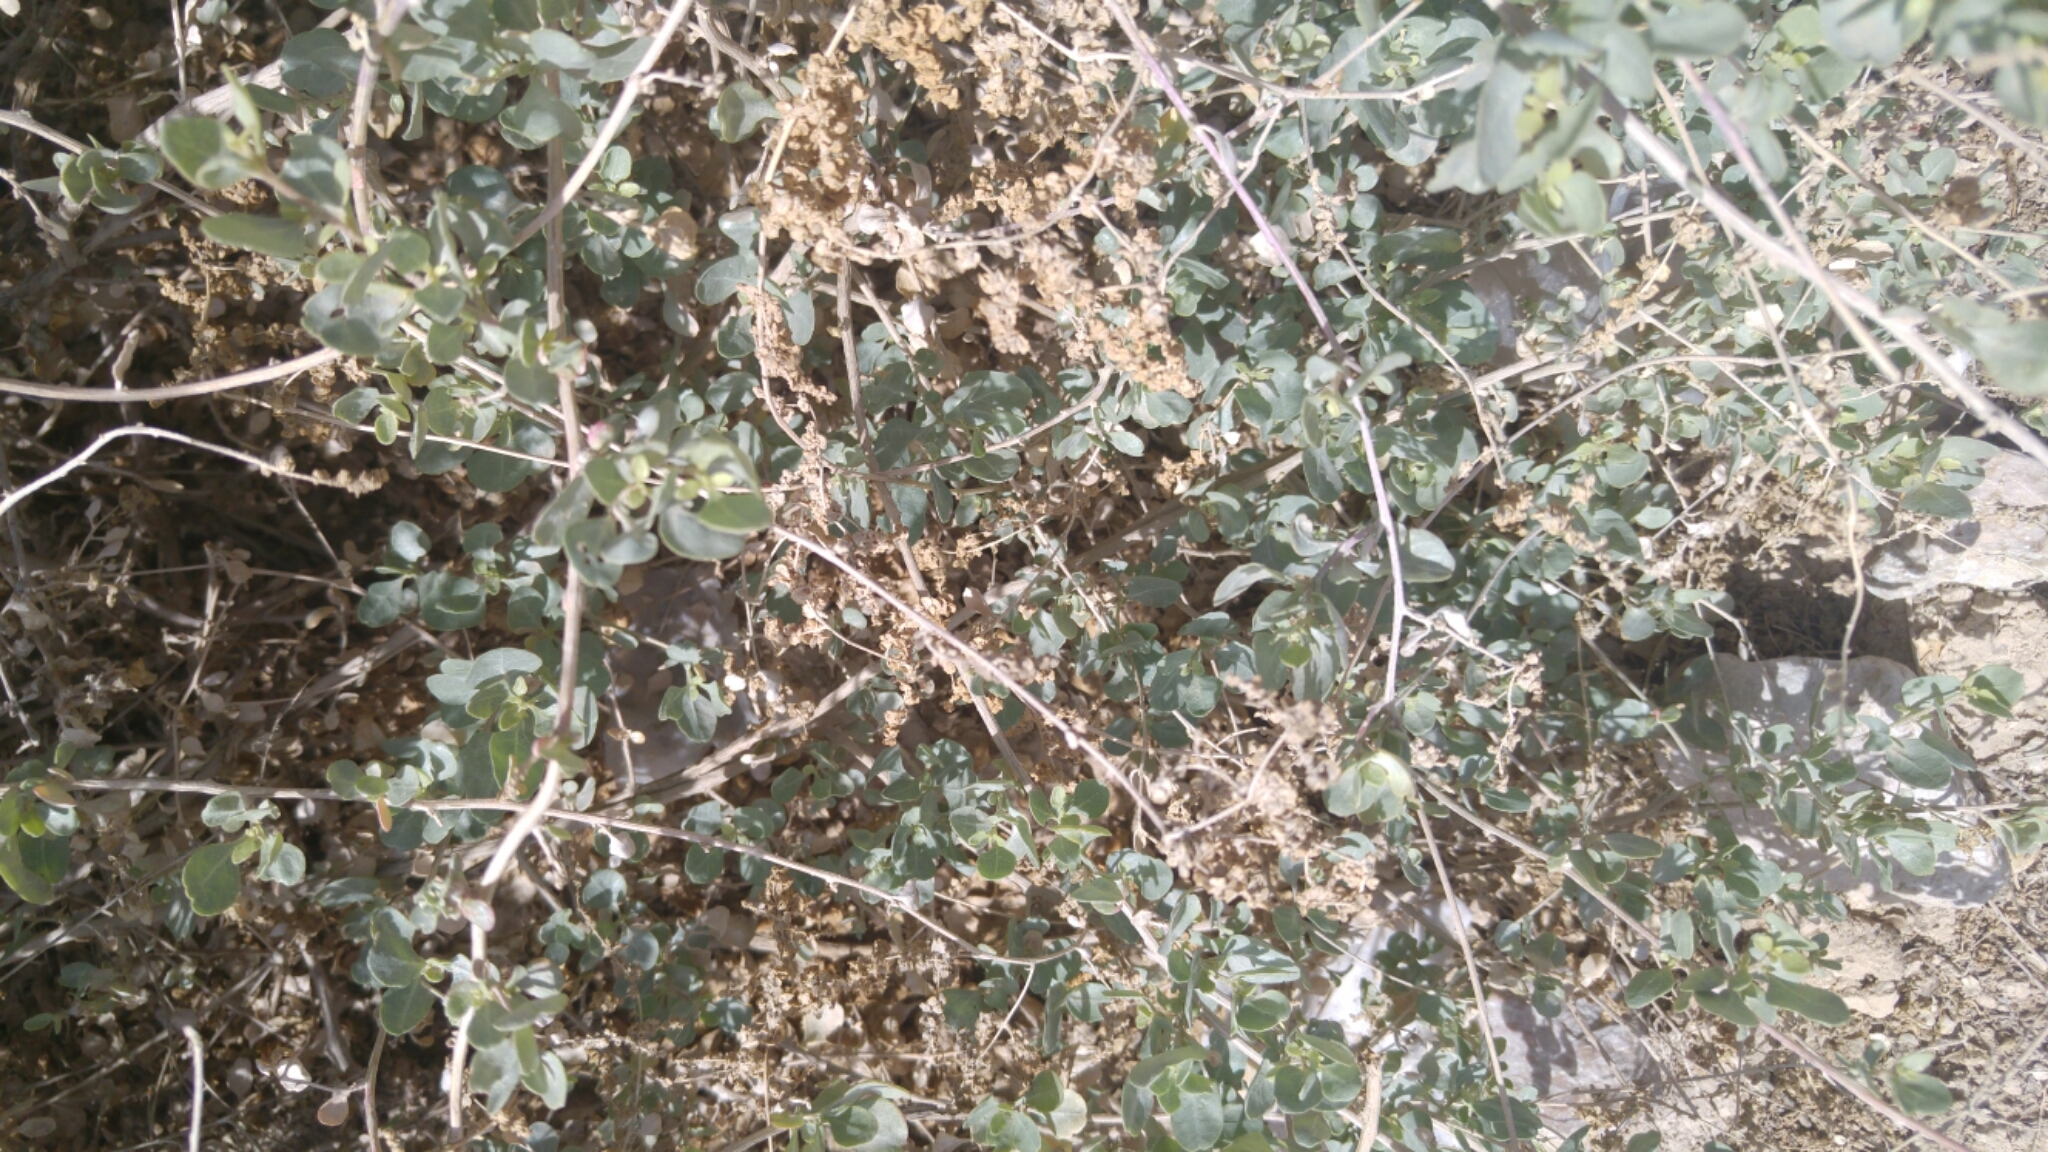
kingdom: Plantae
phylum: Tracheophyta
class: Magnoliopsida
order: Caryophyllales
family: Amaranthaceae
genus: Atriplex
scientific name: Atriplex halimus
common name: Shrubby orache
